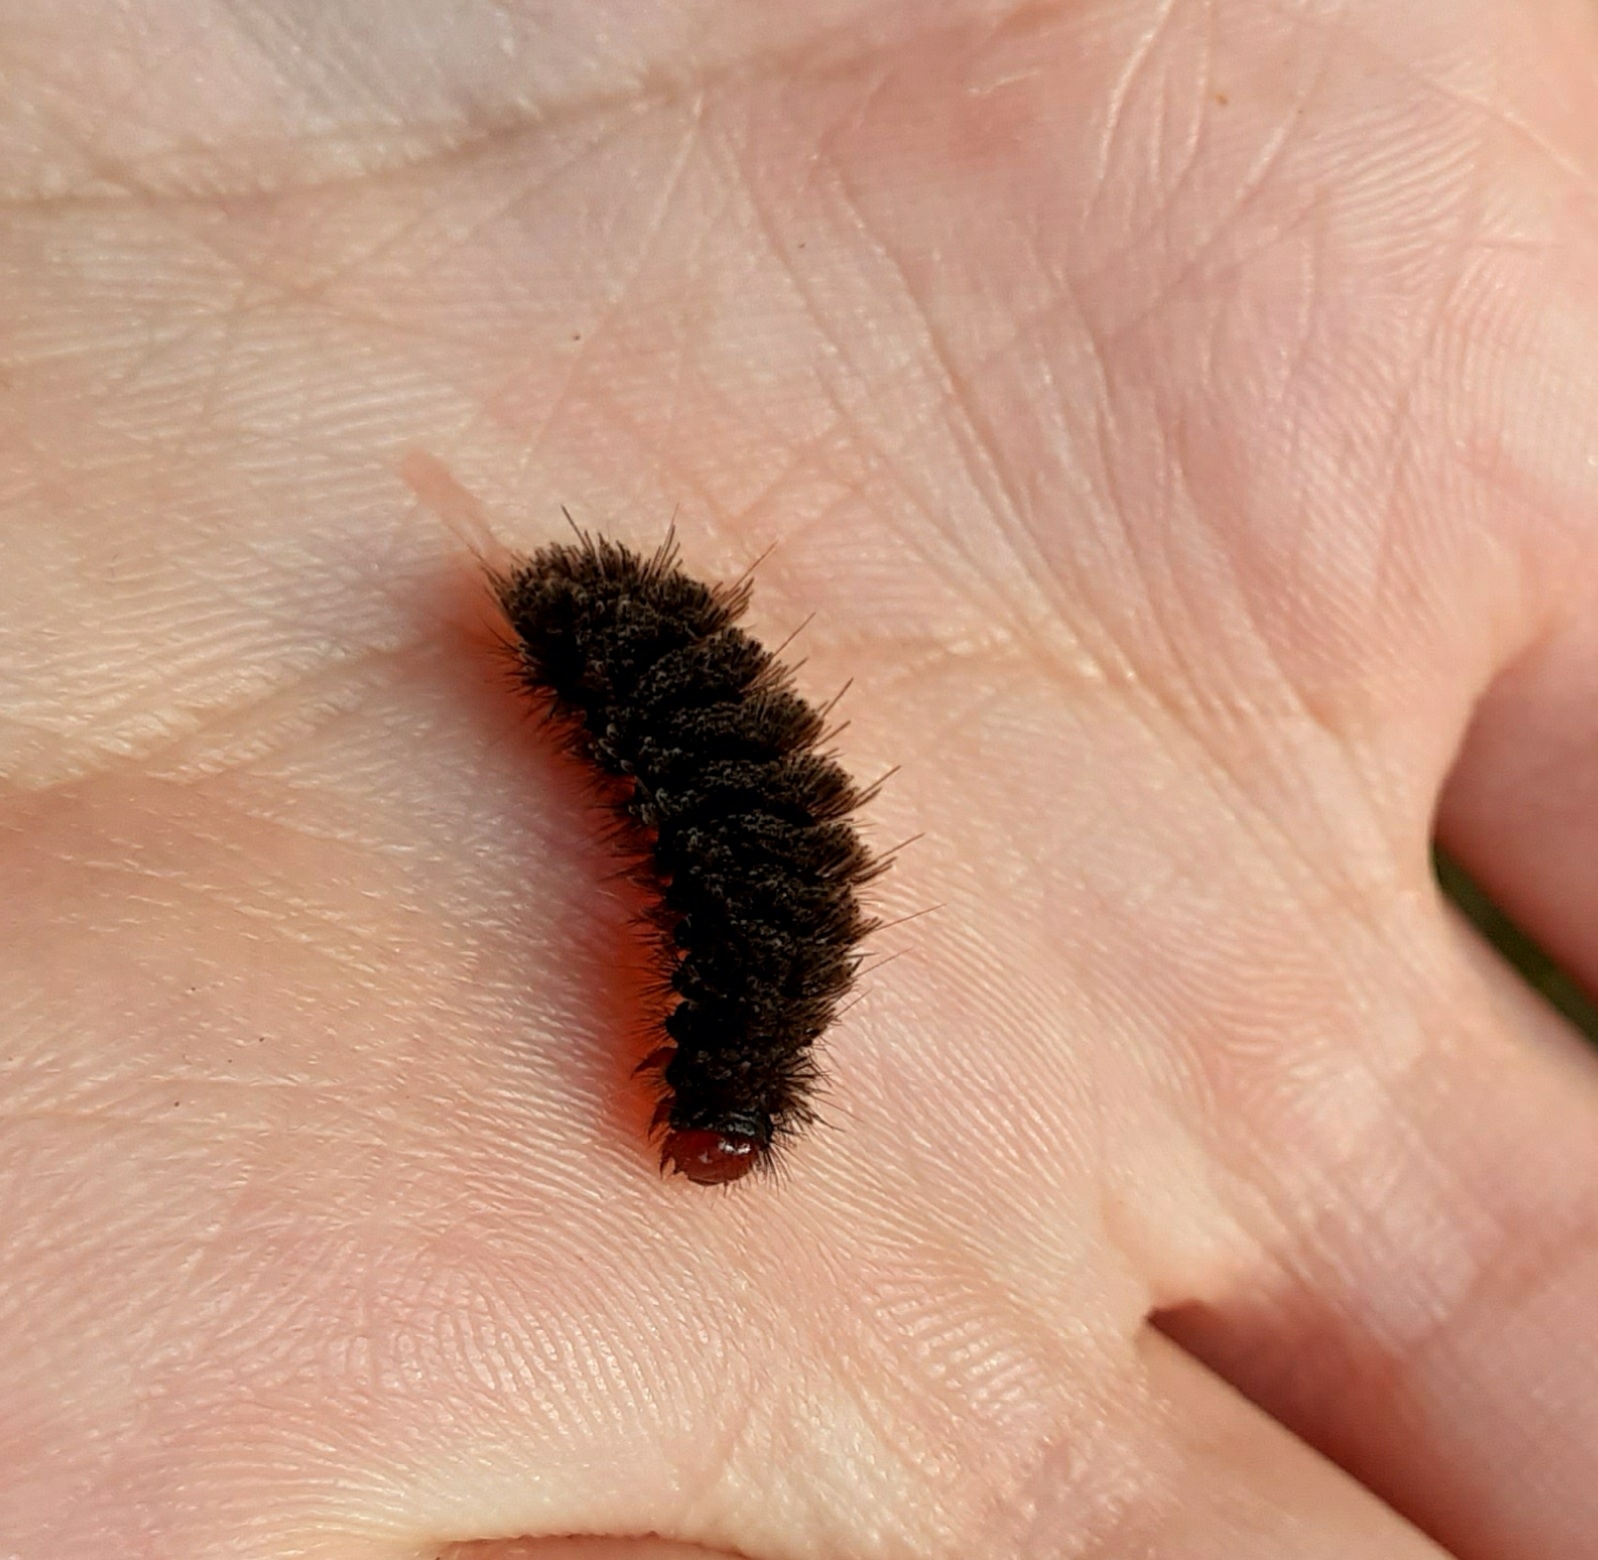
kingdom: Animalia
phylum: Arthropoda
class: Insecta
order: Lepidoptera
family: Erebidae
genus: Amata
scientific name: Amata phegea
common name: Nine-spotted
